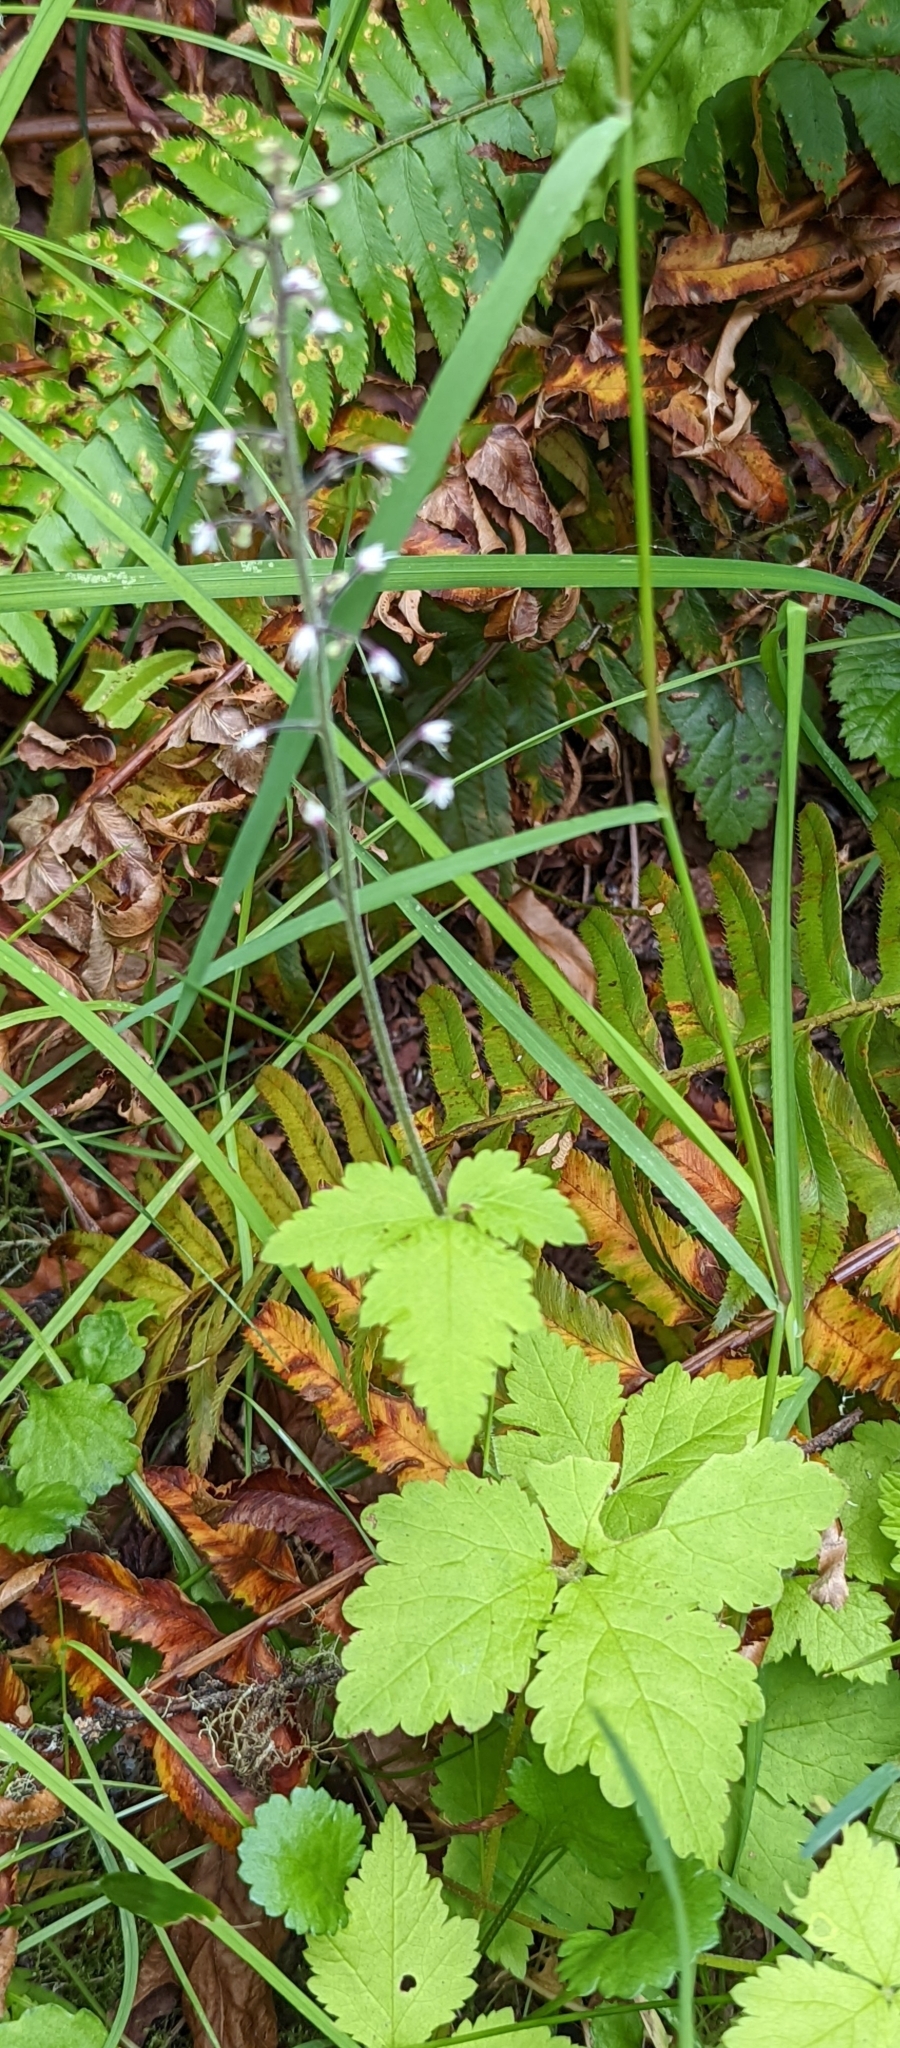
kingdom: Plantae
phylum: Tracheophyta
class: Magnoliopsida
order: Saxifragales
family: Saxifragaceae
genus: Tiarella
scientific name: Tiarella trifoliata
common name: Sugar-scoop
